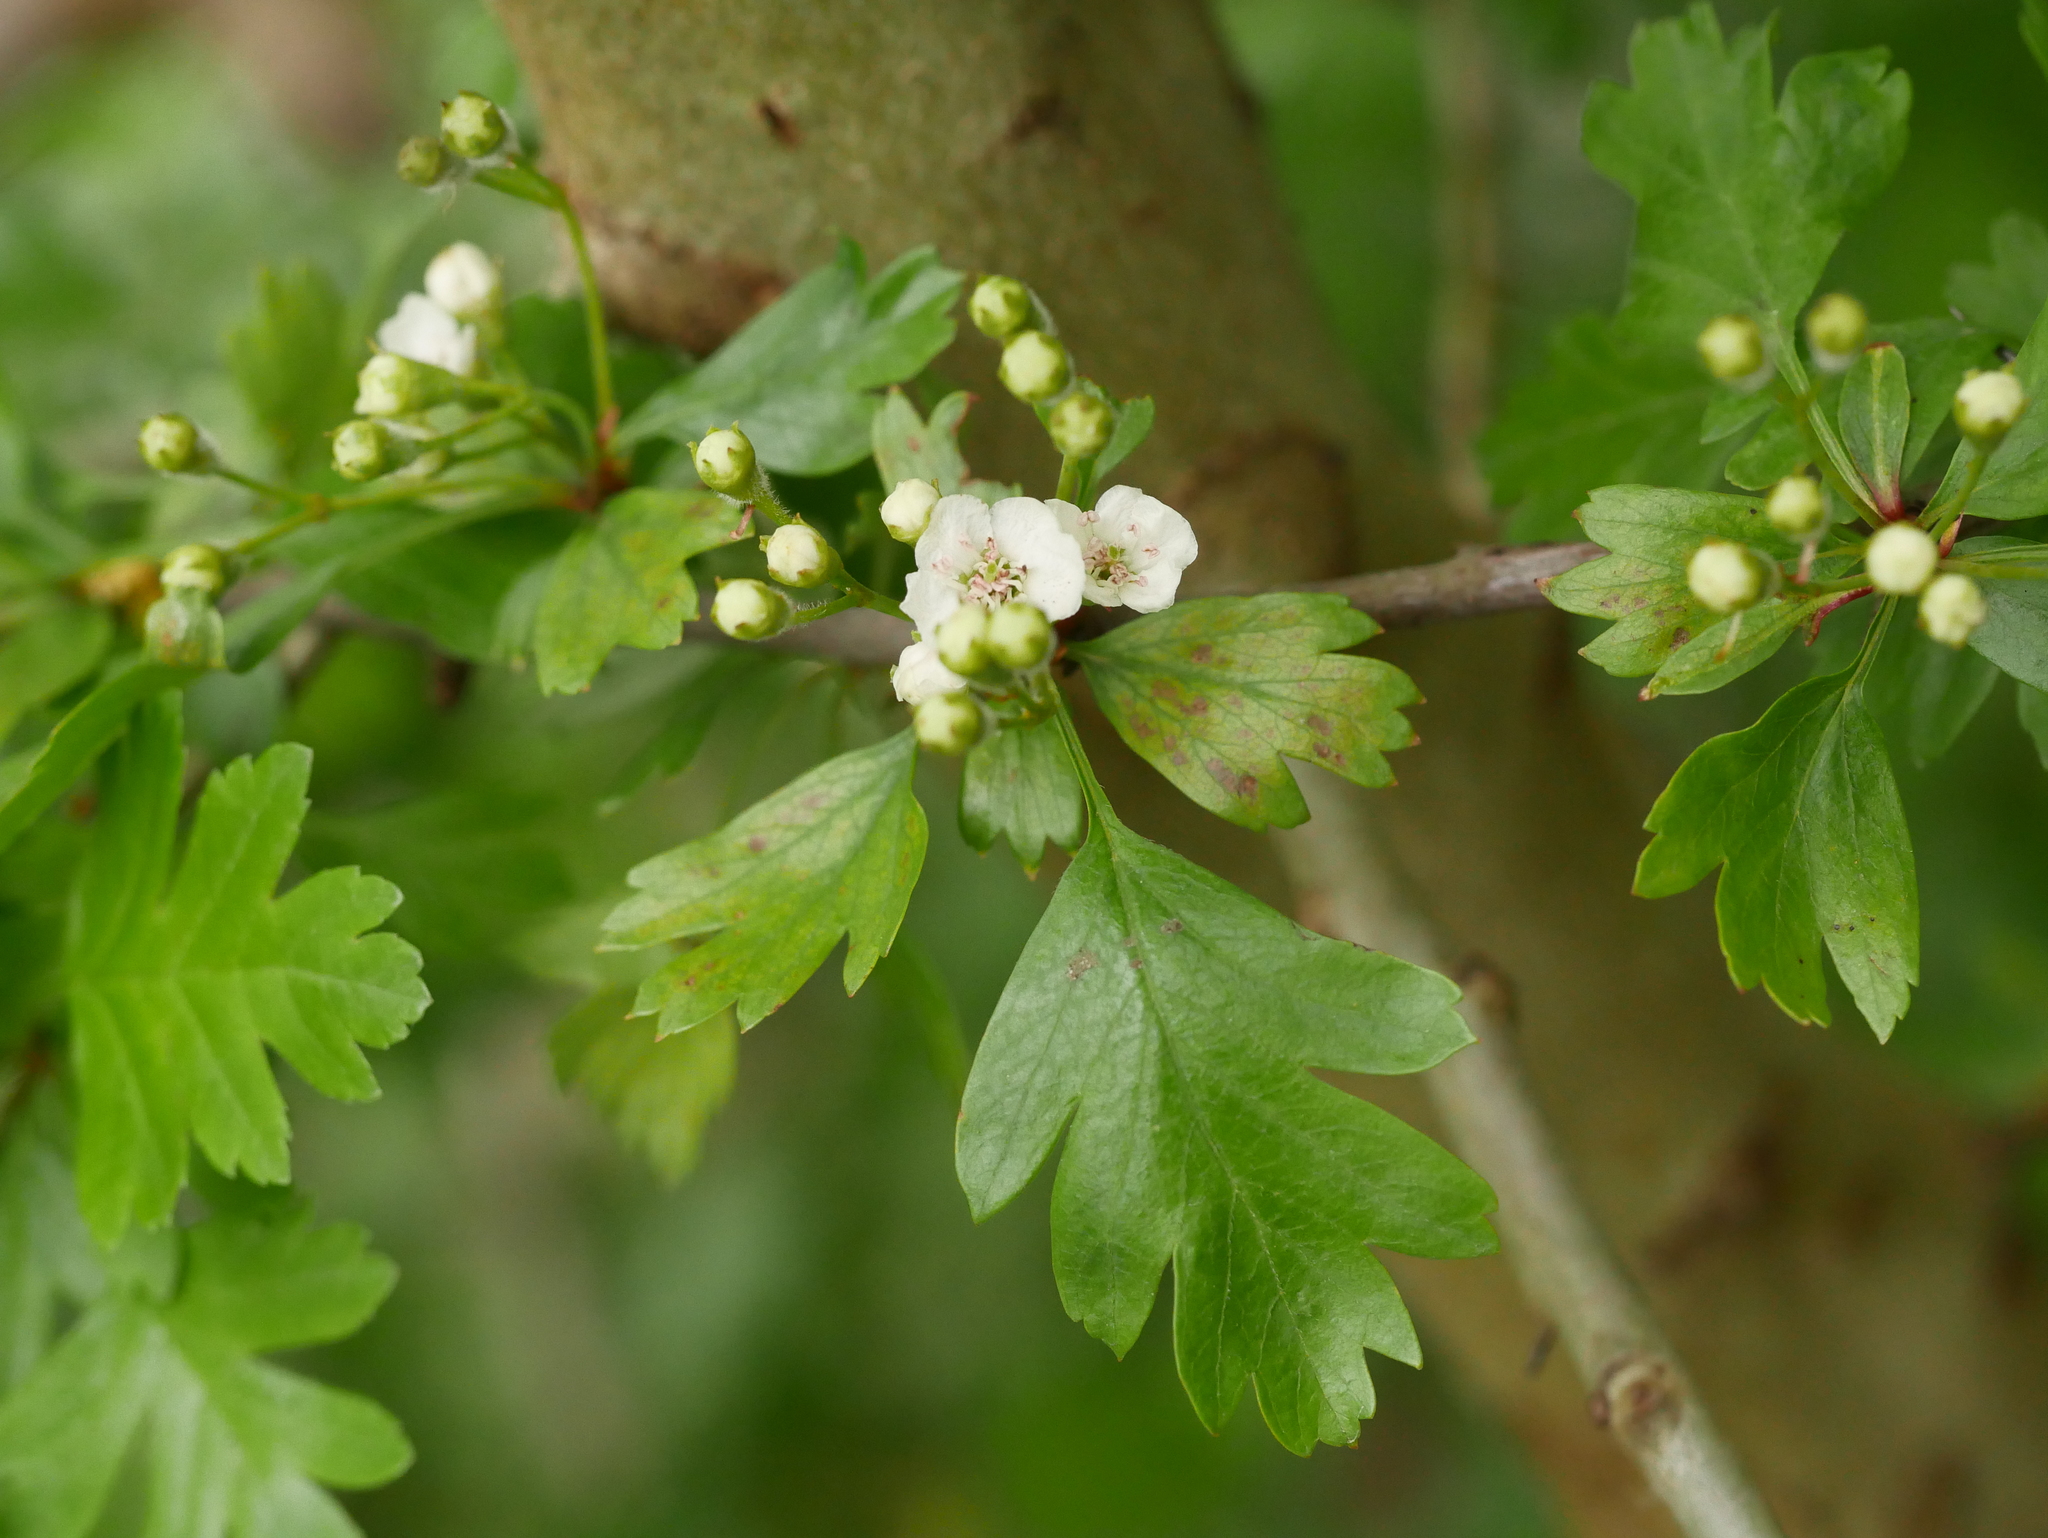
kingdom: Plantae
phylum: Tracheophyta
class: Magnoliopsida
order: Rosales
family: Rosaceae
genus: Crataegus
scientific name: Crataegus monogyna
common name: Hawthorn
